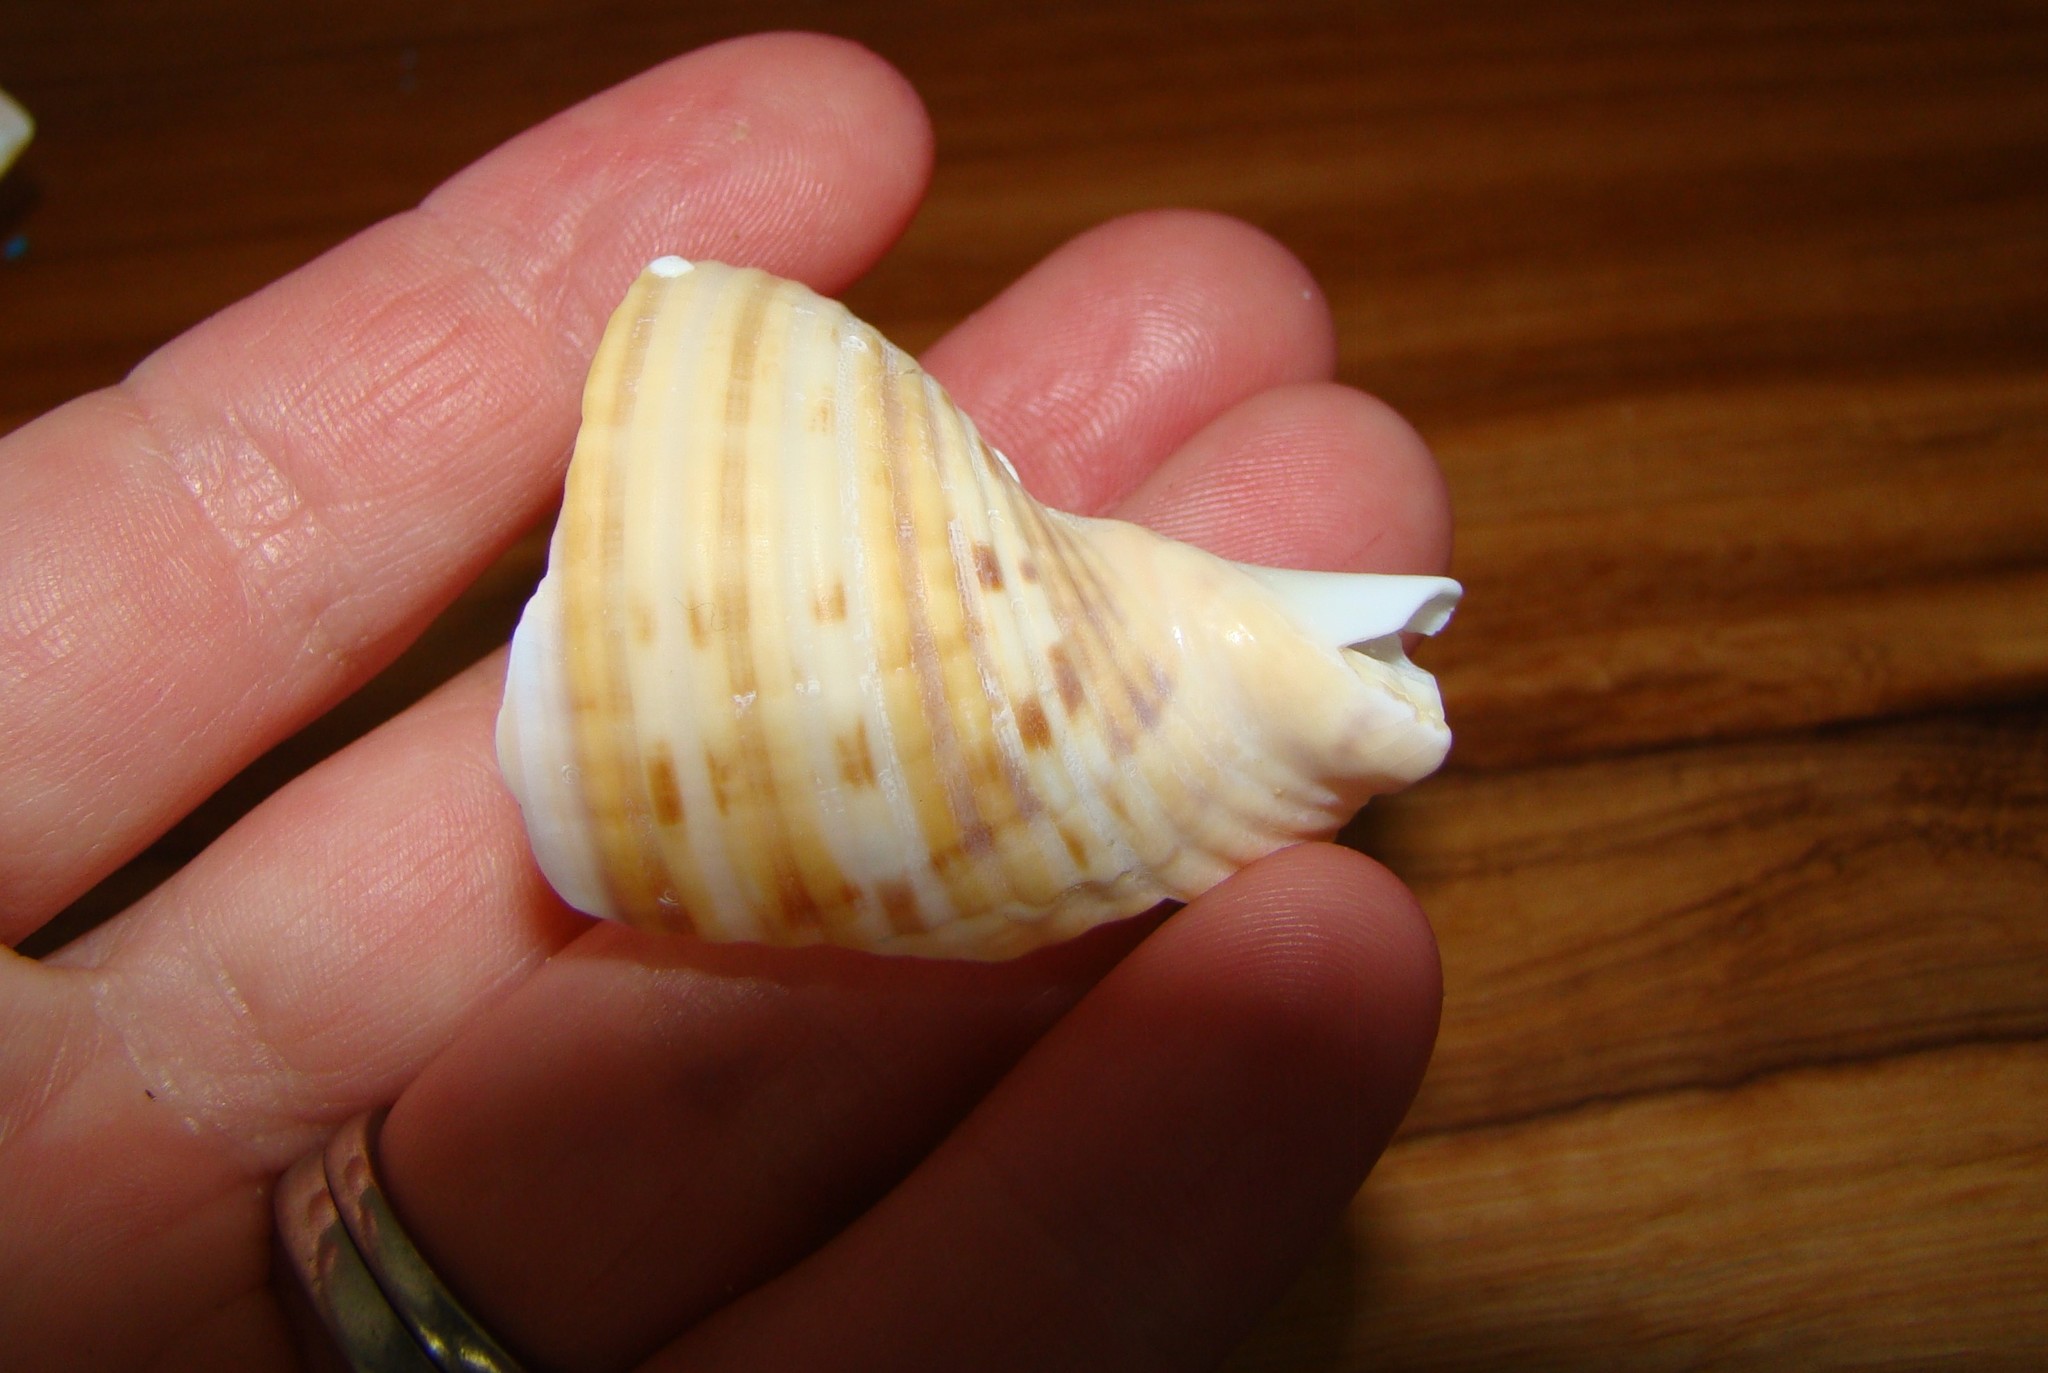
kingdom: Animalia
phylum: Mollusca
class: Gastropoda
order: Littorinimorpha
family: Tonnidae
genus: Tonna
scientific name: Tonna tankervillii
